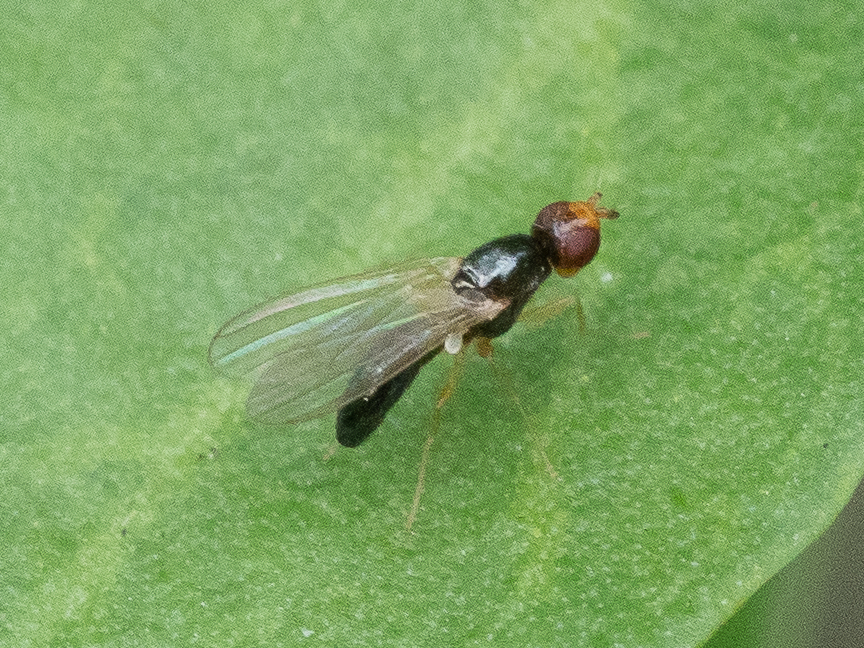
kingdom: Animalia
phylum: Arthropoda
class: Insecta
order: Diptera
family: Psilidae
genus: Chamaepsila
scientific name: Chamaepsila
